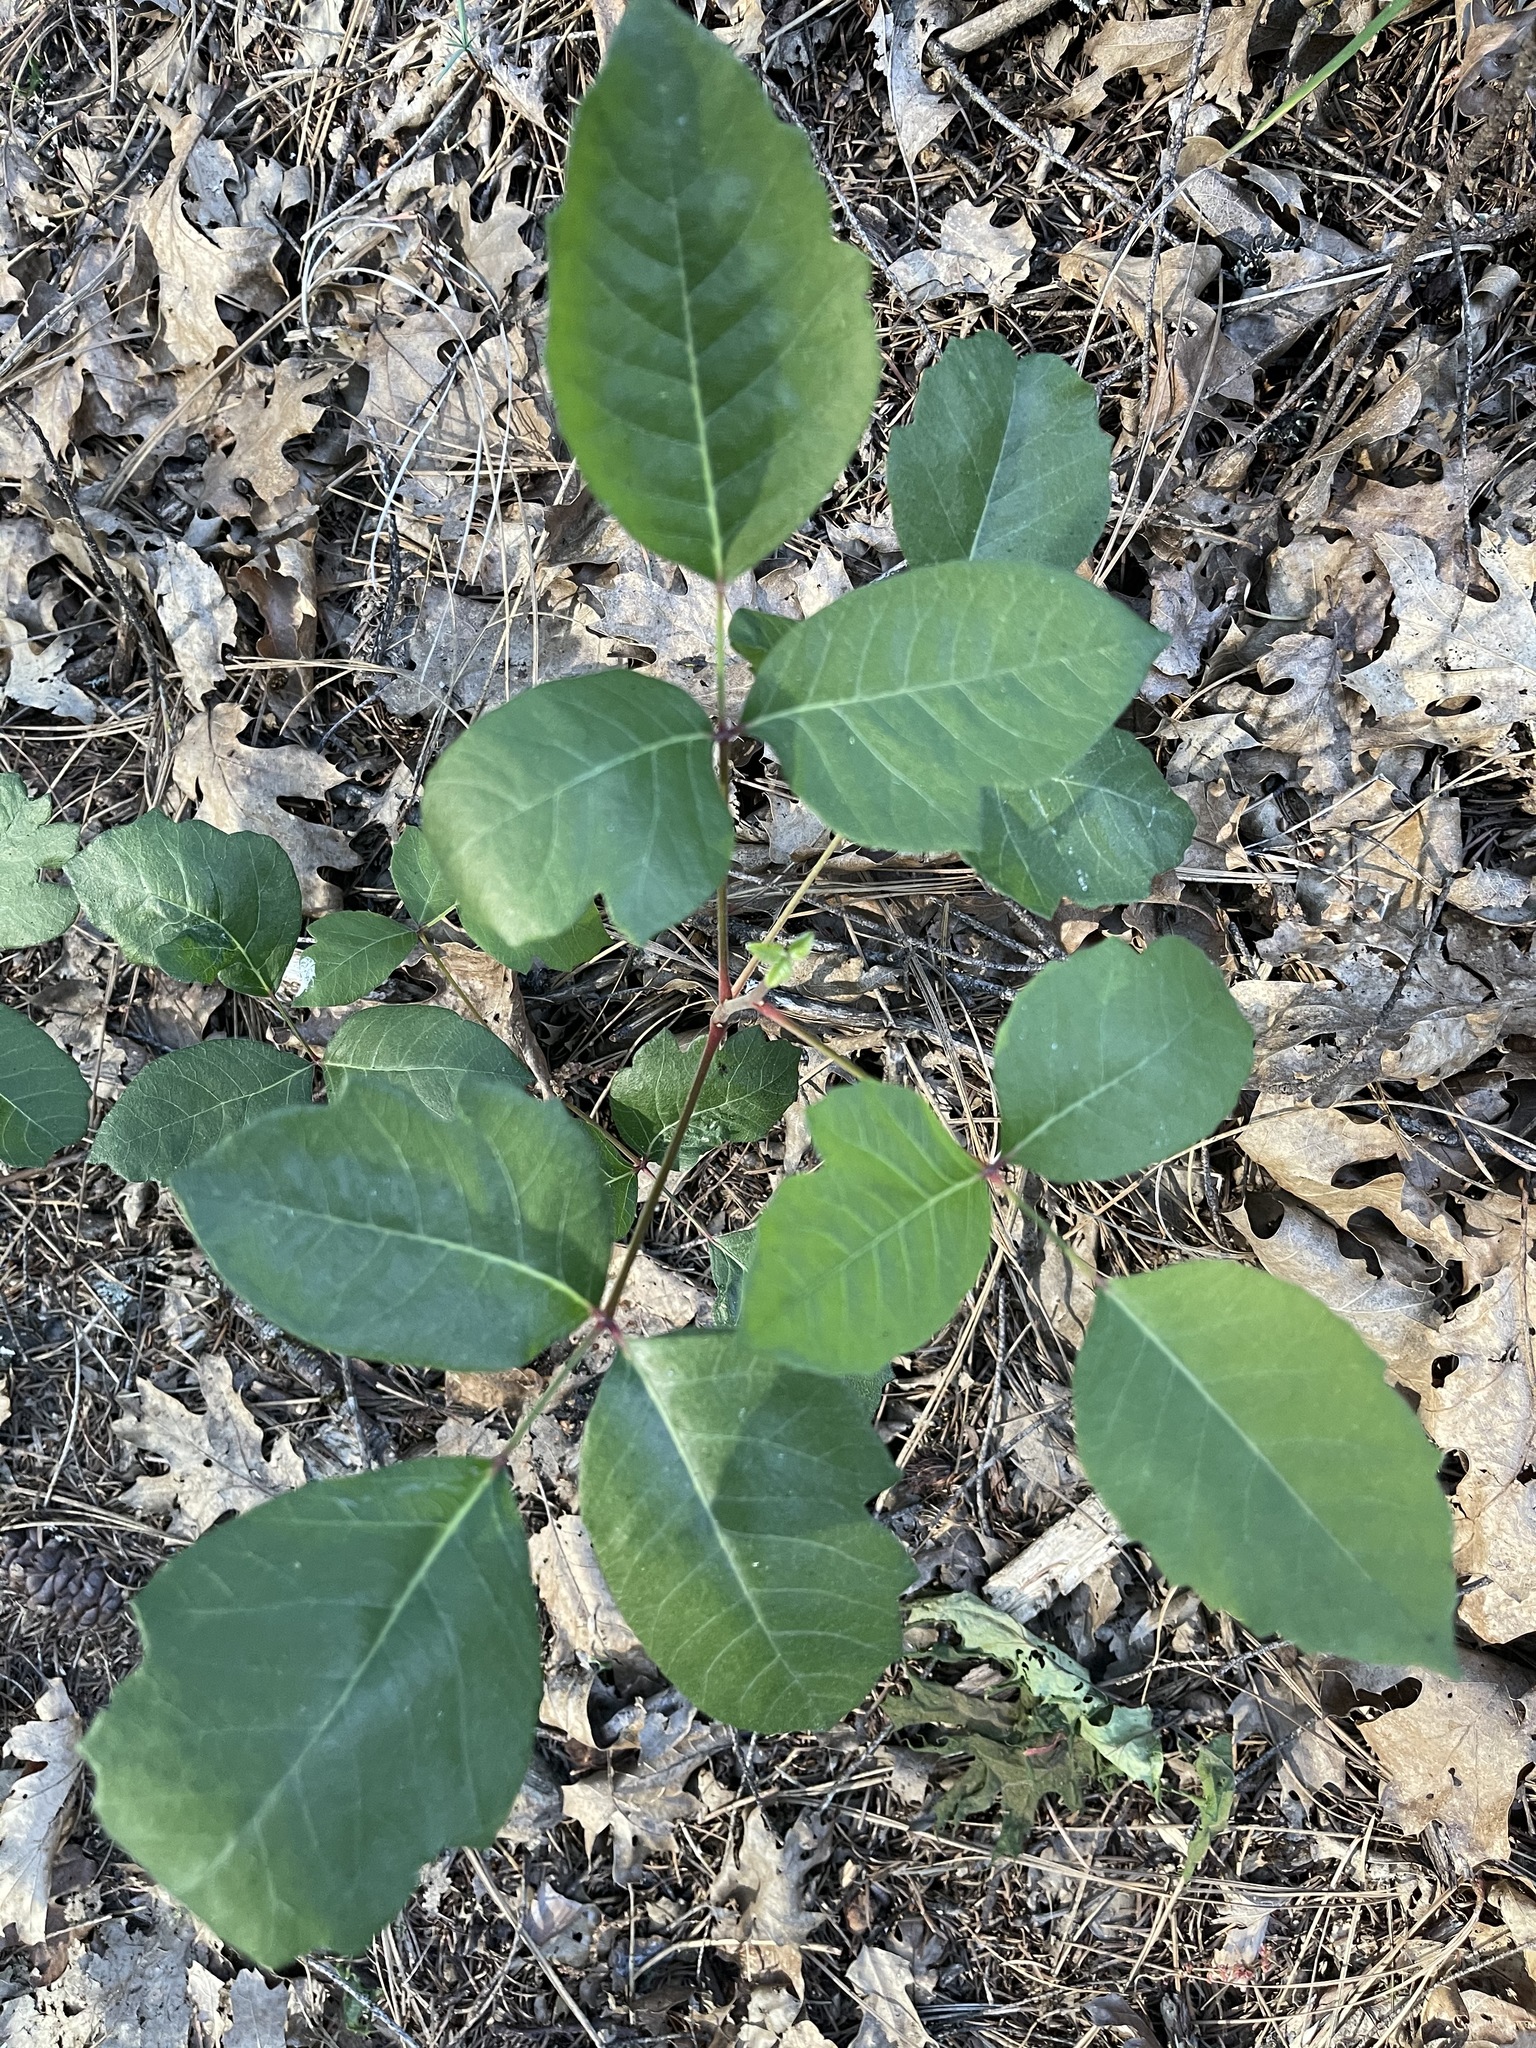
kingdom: Plantae
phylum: Tracheophyta
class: Magnoliopsida
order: Sapindales
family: Anacardiaceae
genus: Toxicodendron
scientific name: Toxicodendron diversilobum
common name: Pacific poison-oak
